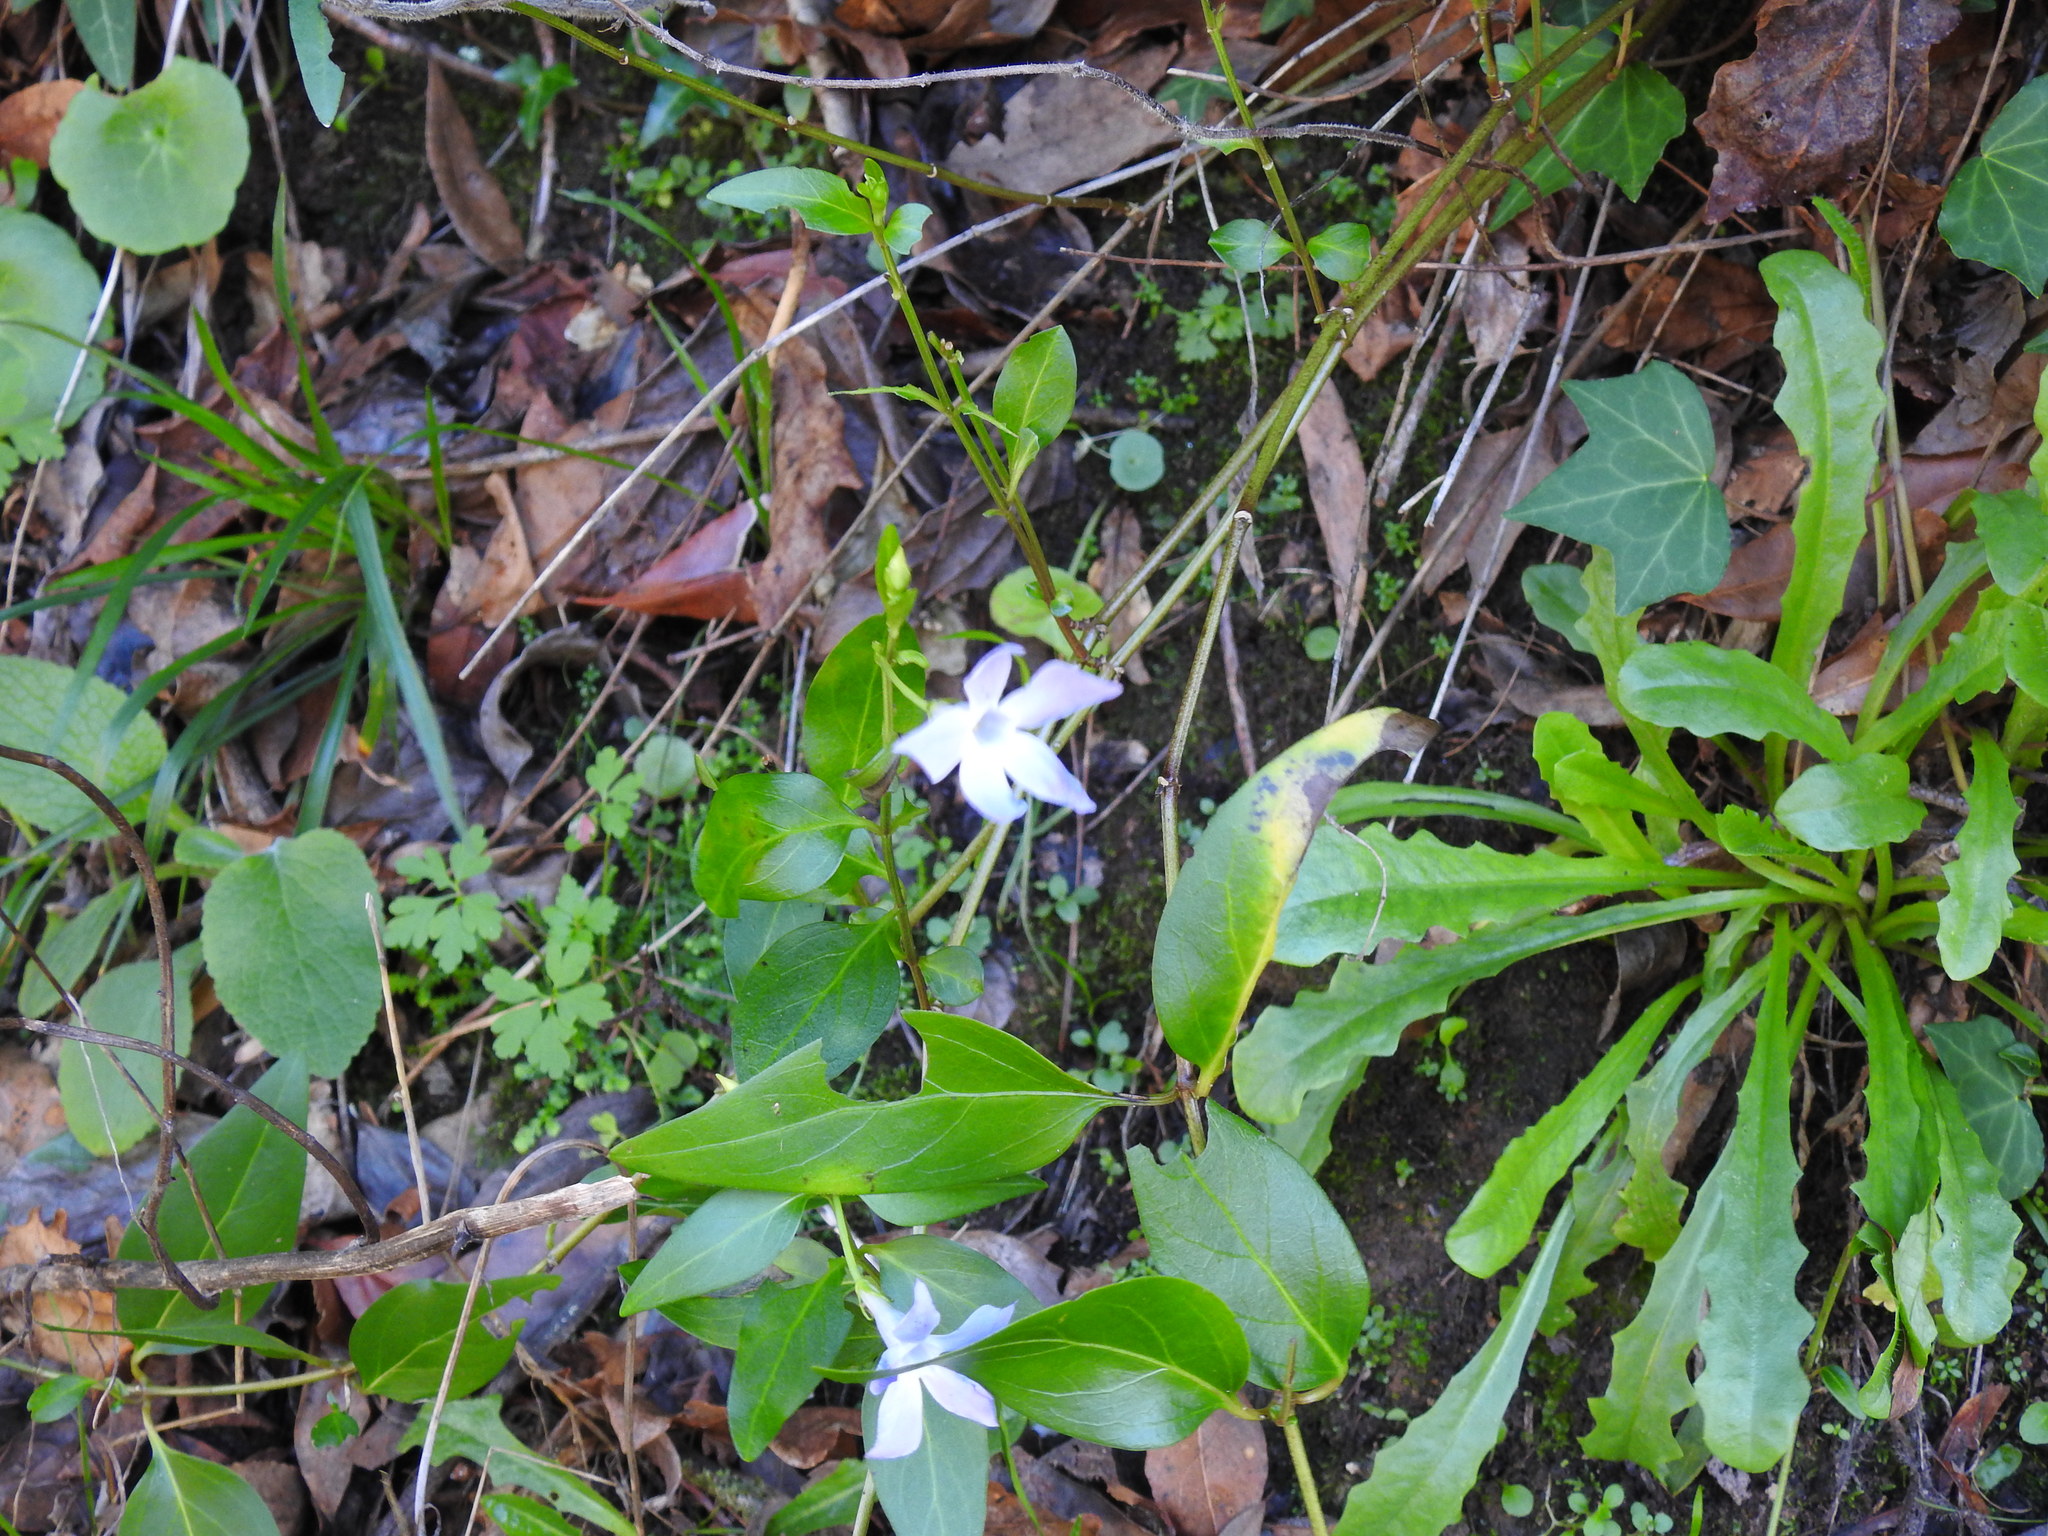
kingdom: Plantae
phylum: Tracheophyta
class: Magnoliopsida
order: Gentianales
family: Apocynaceae
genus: Vinca
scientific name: Vinca difformis
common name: Intermediate periwinkle
